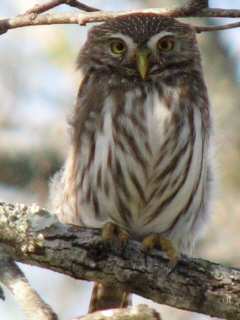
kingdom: Animalia
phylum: Chordata
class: Aves
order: Strigiformes
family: Strigidae
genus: Glaucidium
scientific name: Glaucidium brasilianum
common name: Ferruginous pygmy-owl
